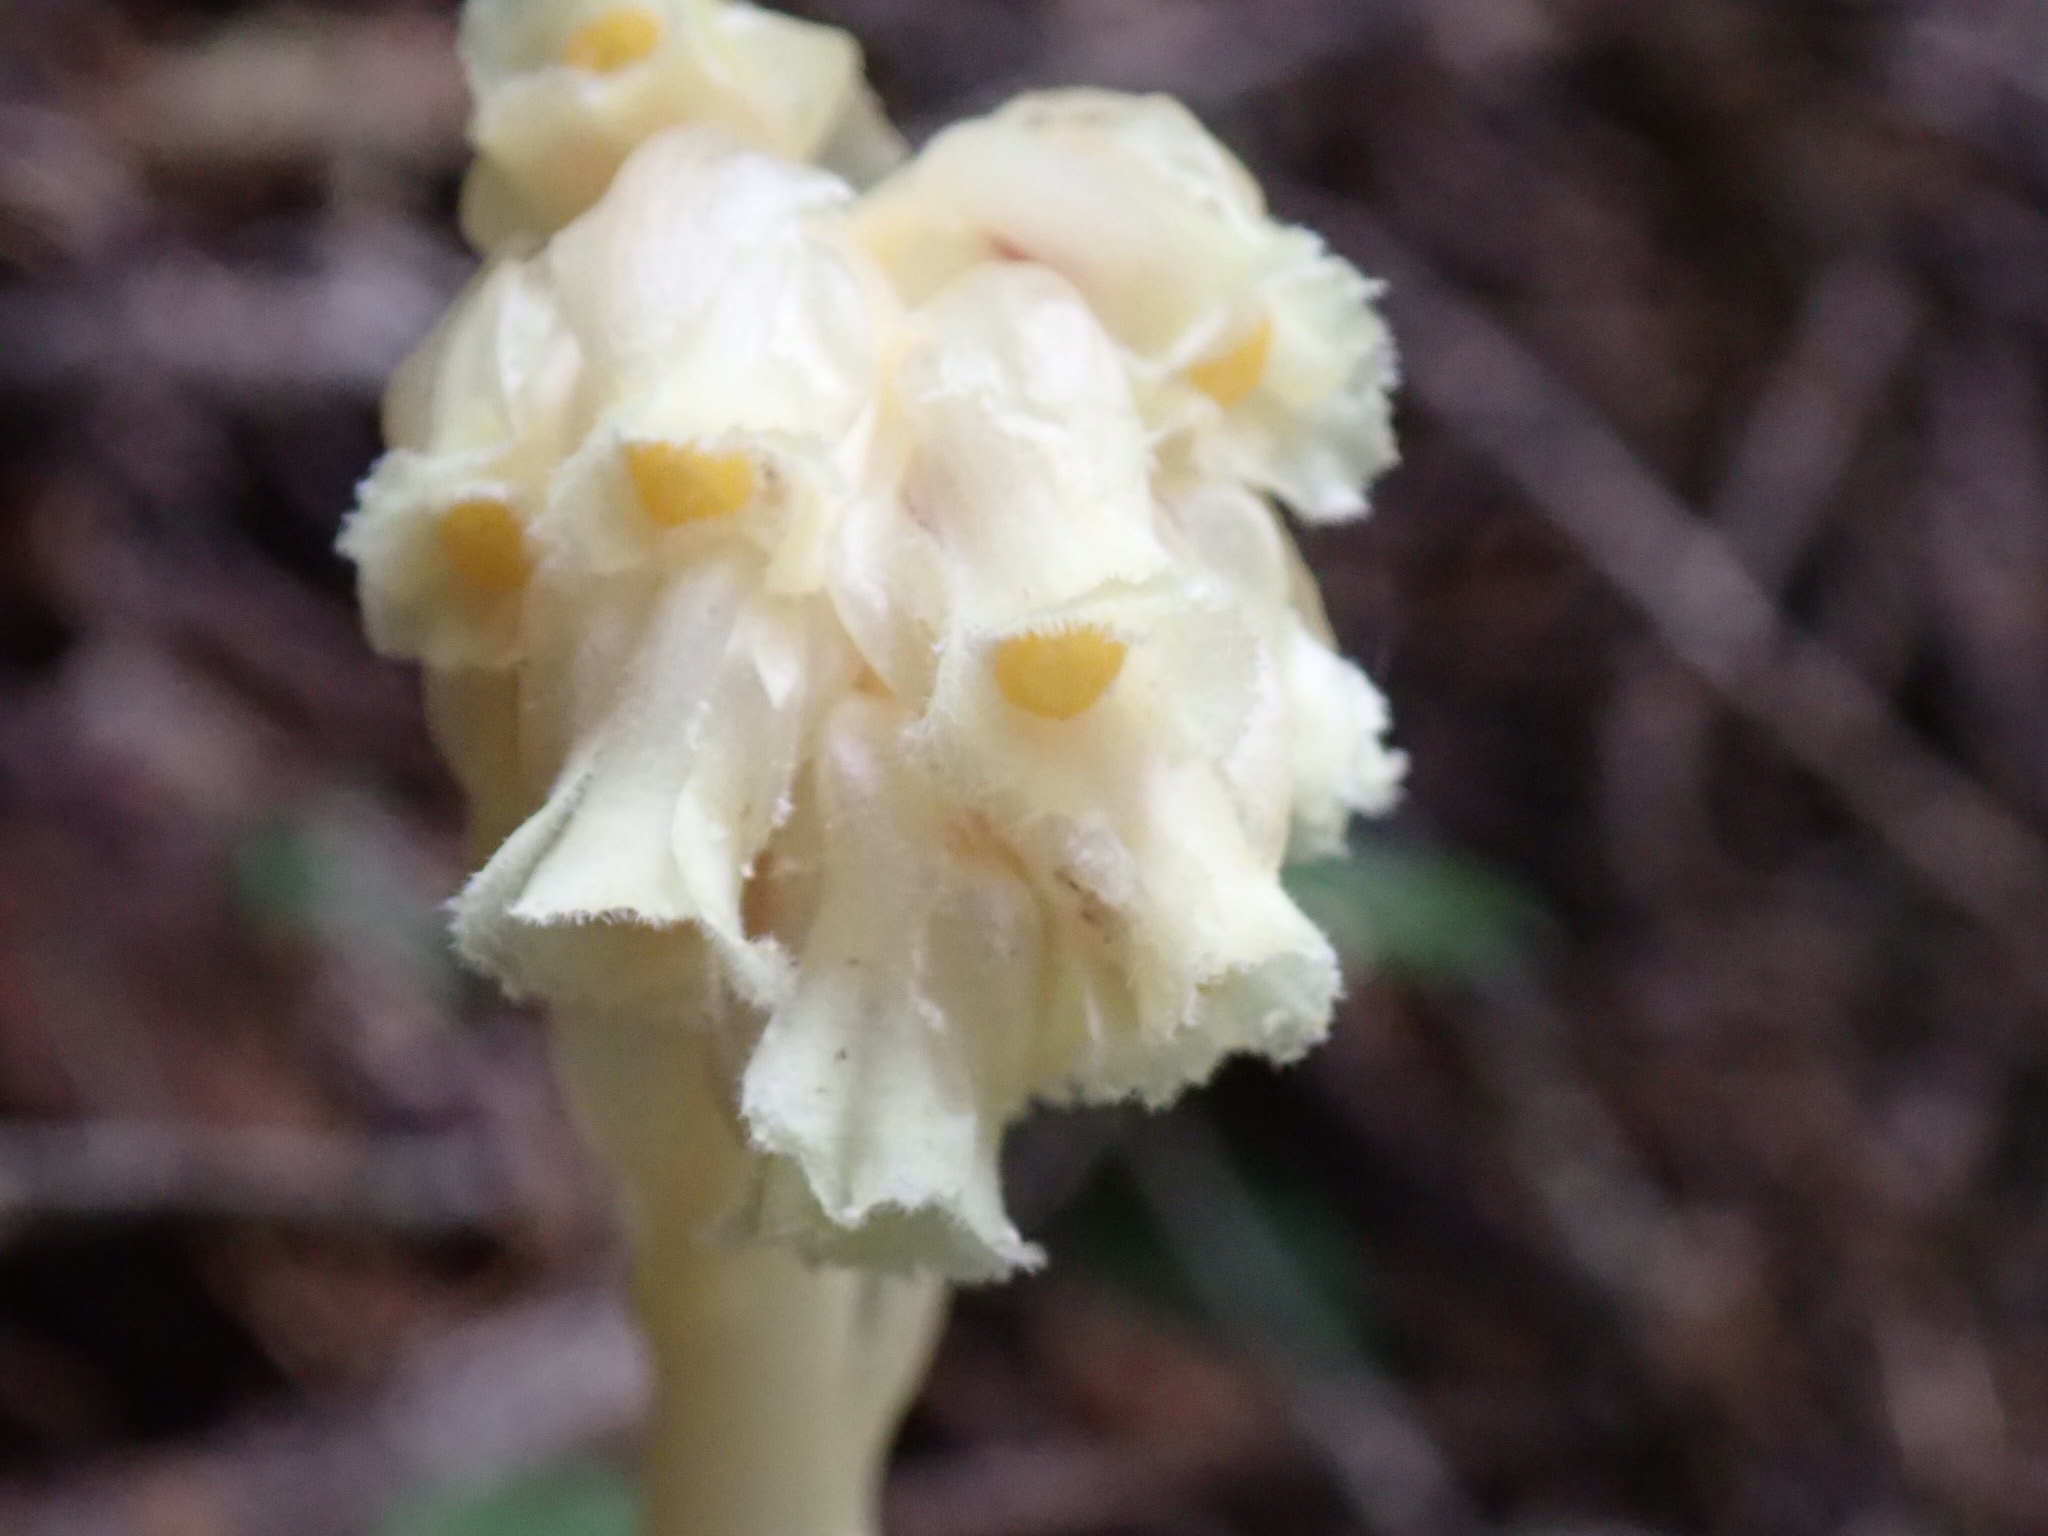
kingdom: Plantae
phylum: Tracheophyta
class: Magnoliopsida
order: Ericales
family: Ericaceae
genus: Hypopitys
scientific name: Hypopitys monotropa
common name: Yellow bird's-nest
